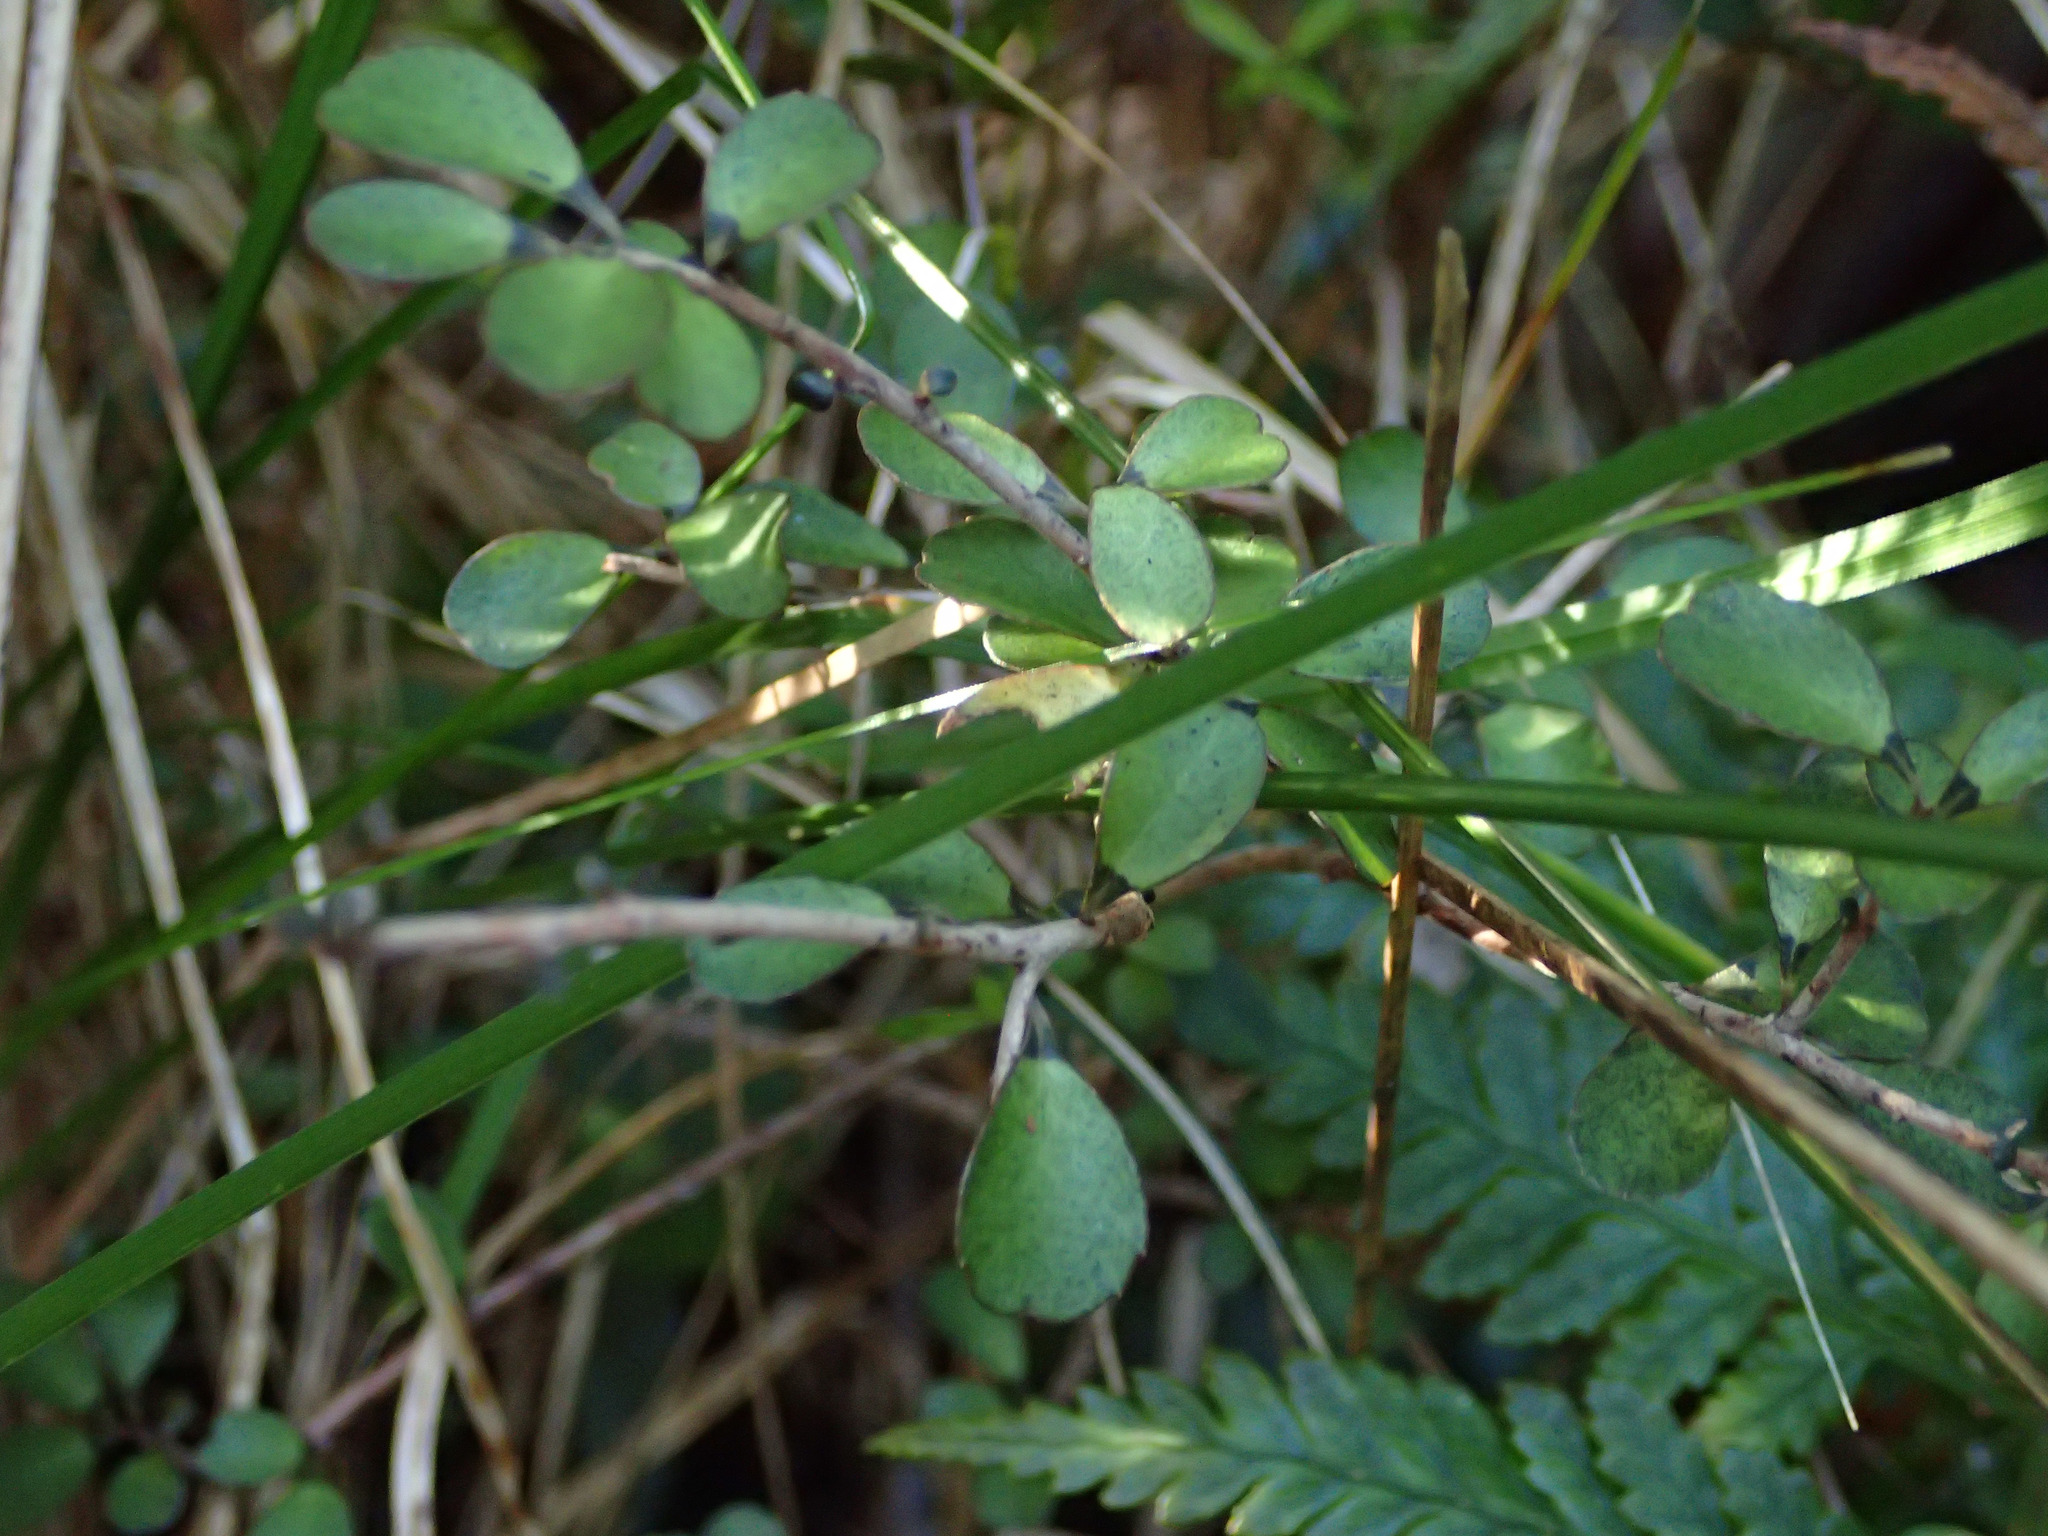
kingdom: Plantae
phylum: Tracheophyta
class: Magnoliopsida
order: Ericales
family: Primulaceae
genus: Myrsine
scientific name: Myrsine divaricata
